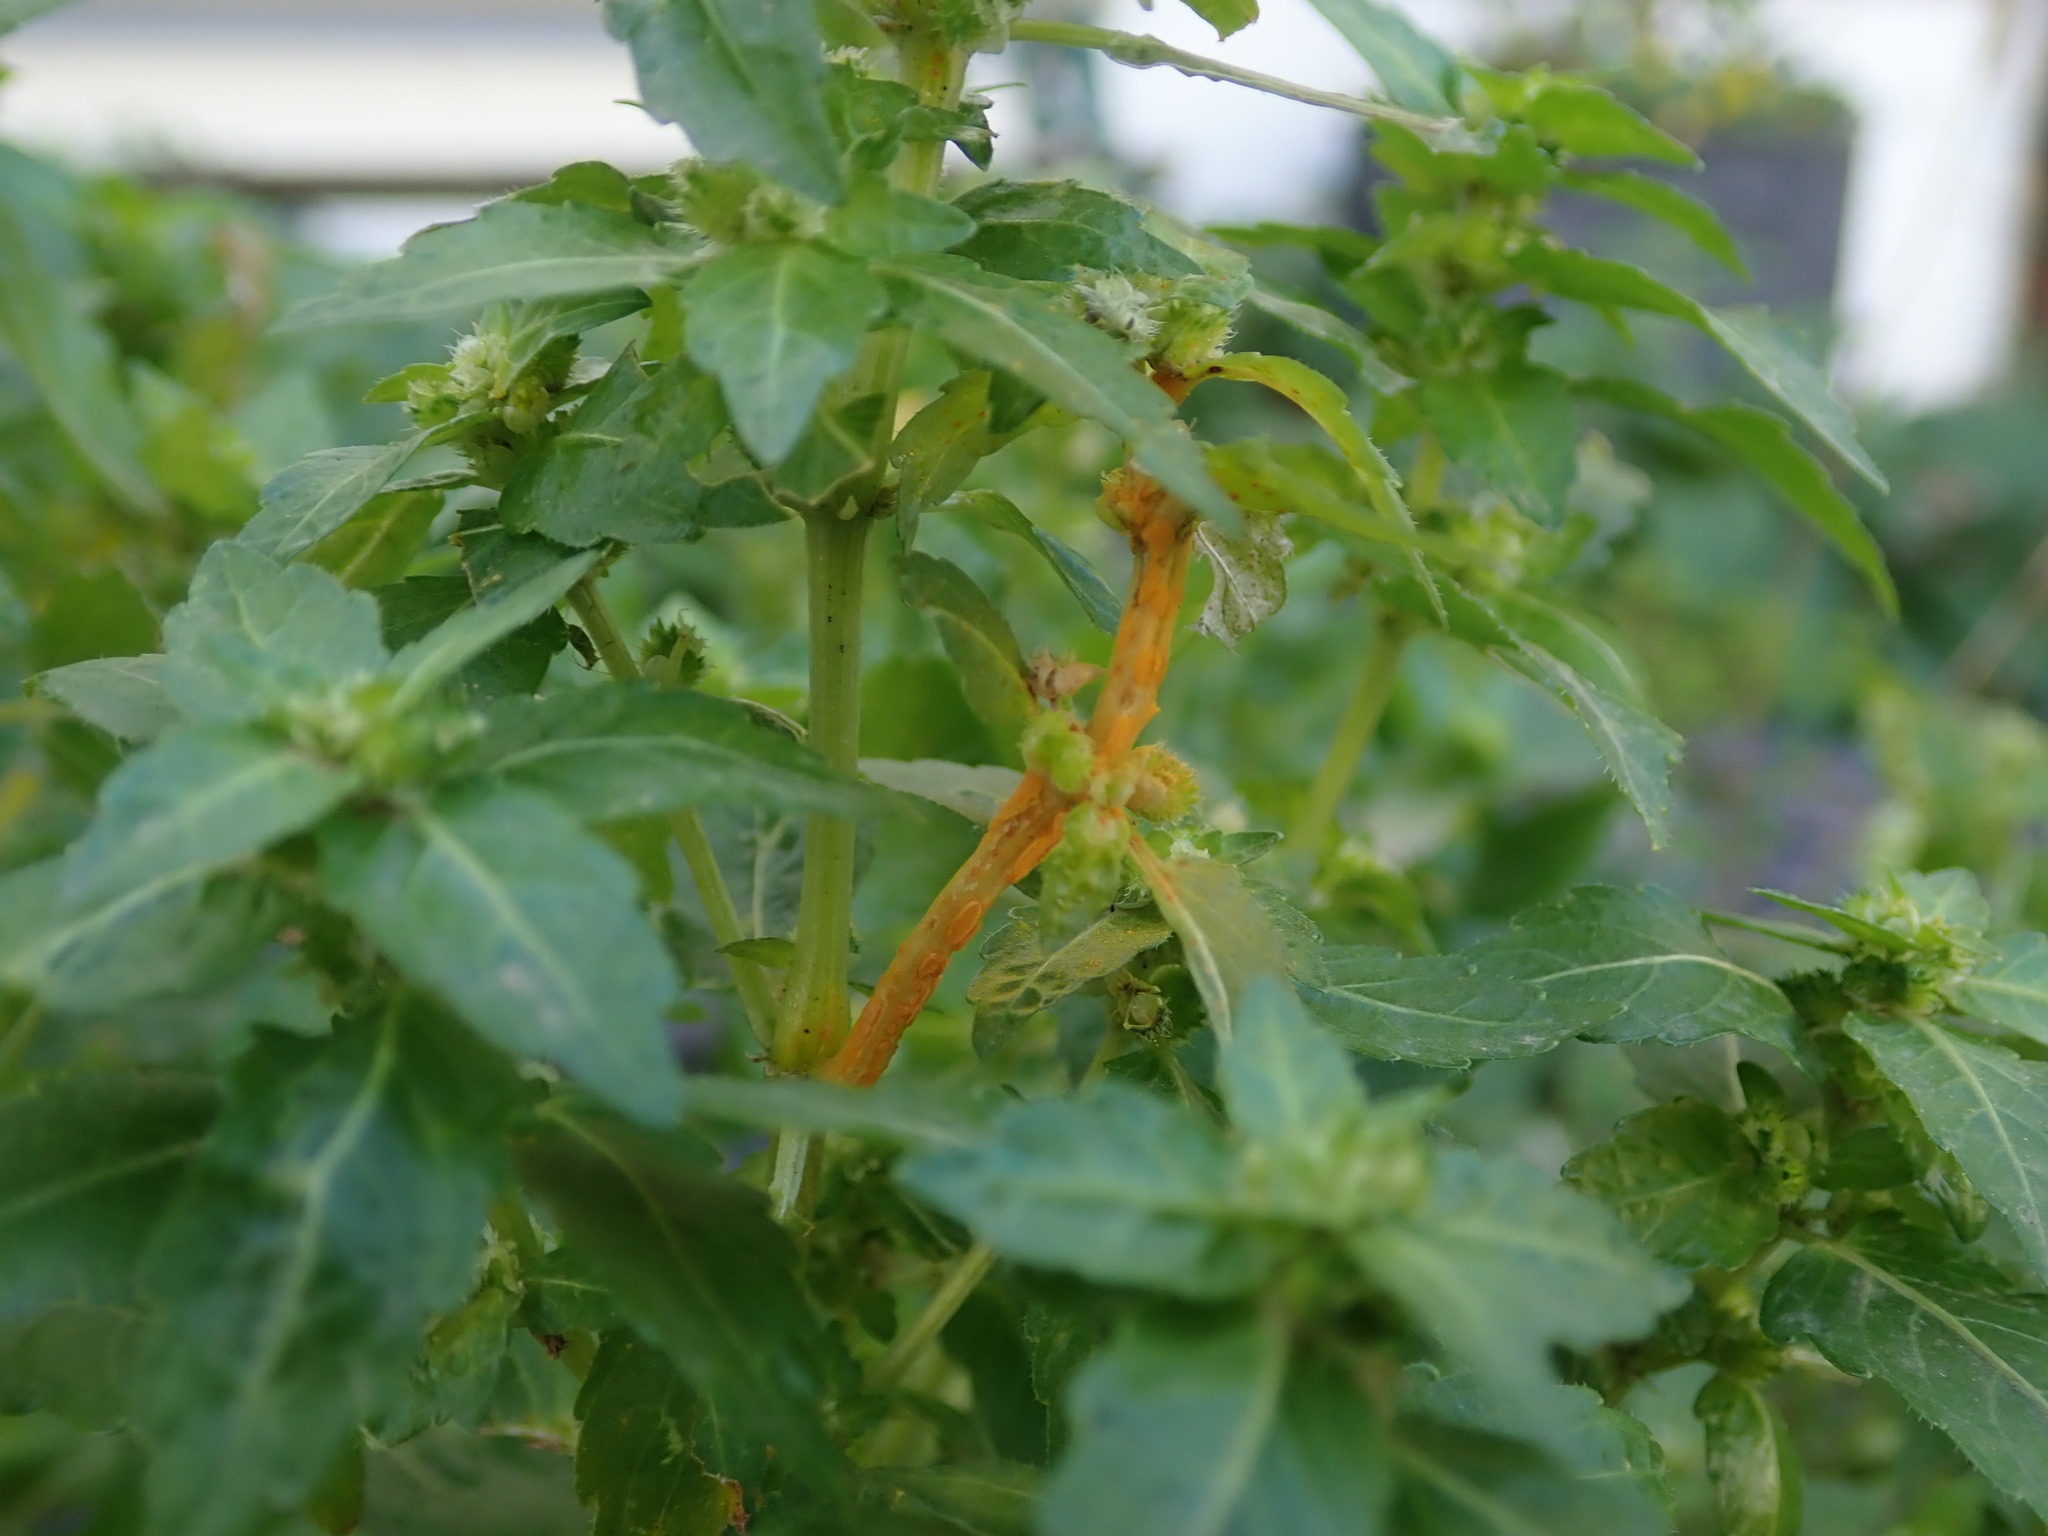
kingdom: Fungi
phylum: Basidiomycota
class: Pucciniomycetes
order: Pucciniales
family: Melampsoraceae
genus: Melampsora
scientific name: Melampsora pulcherrima
